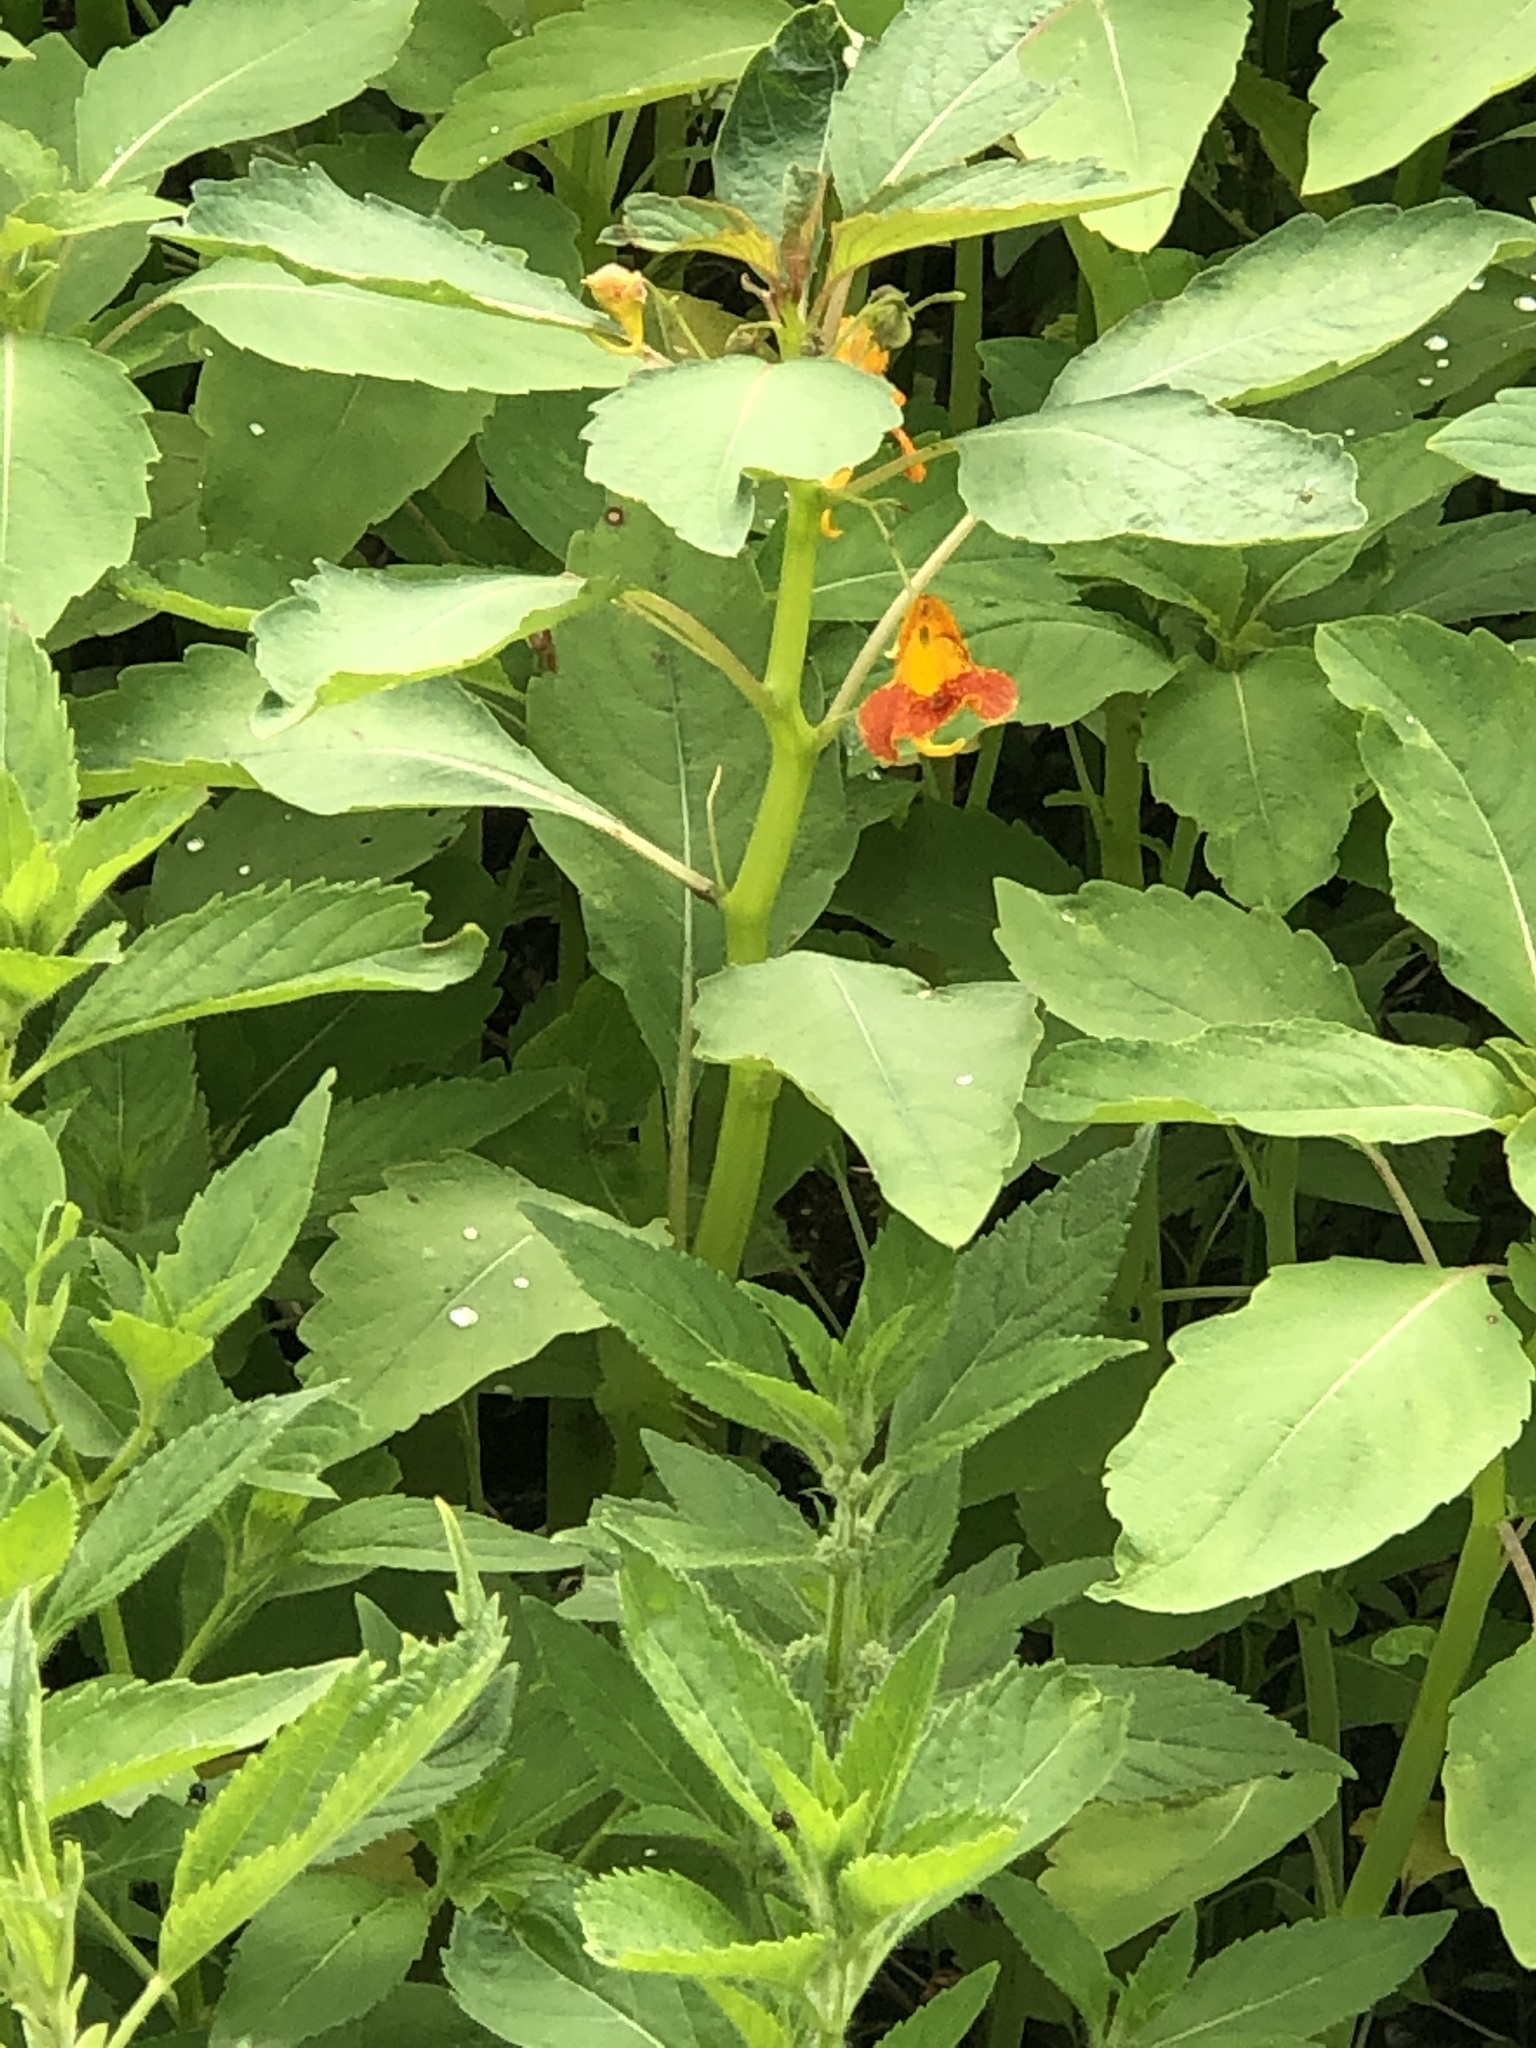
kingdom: Plantae
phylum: Tracheophyta
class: Magnoliopsida
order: Ericales
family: Balsaminaceae
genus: Impatiens
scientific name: Impatiens capensis
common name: Orange balsam
